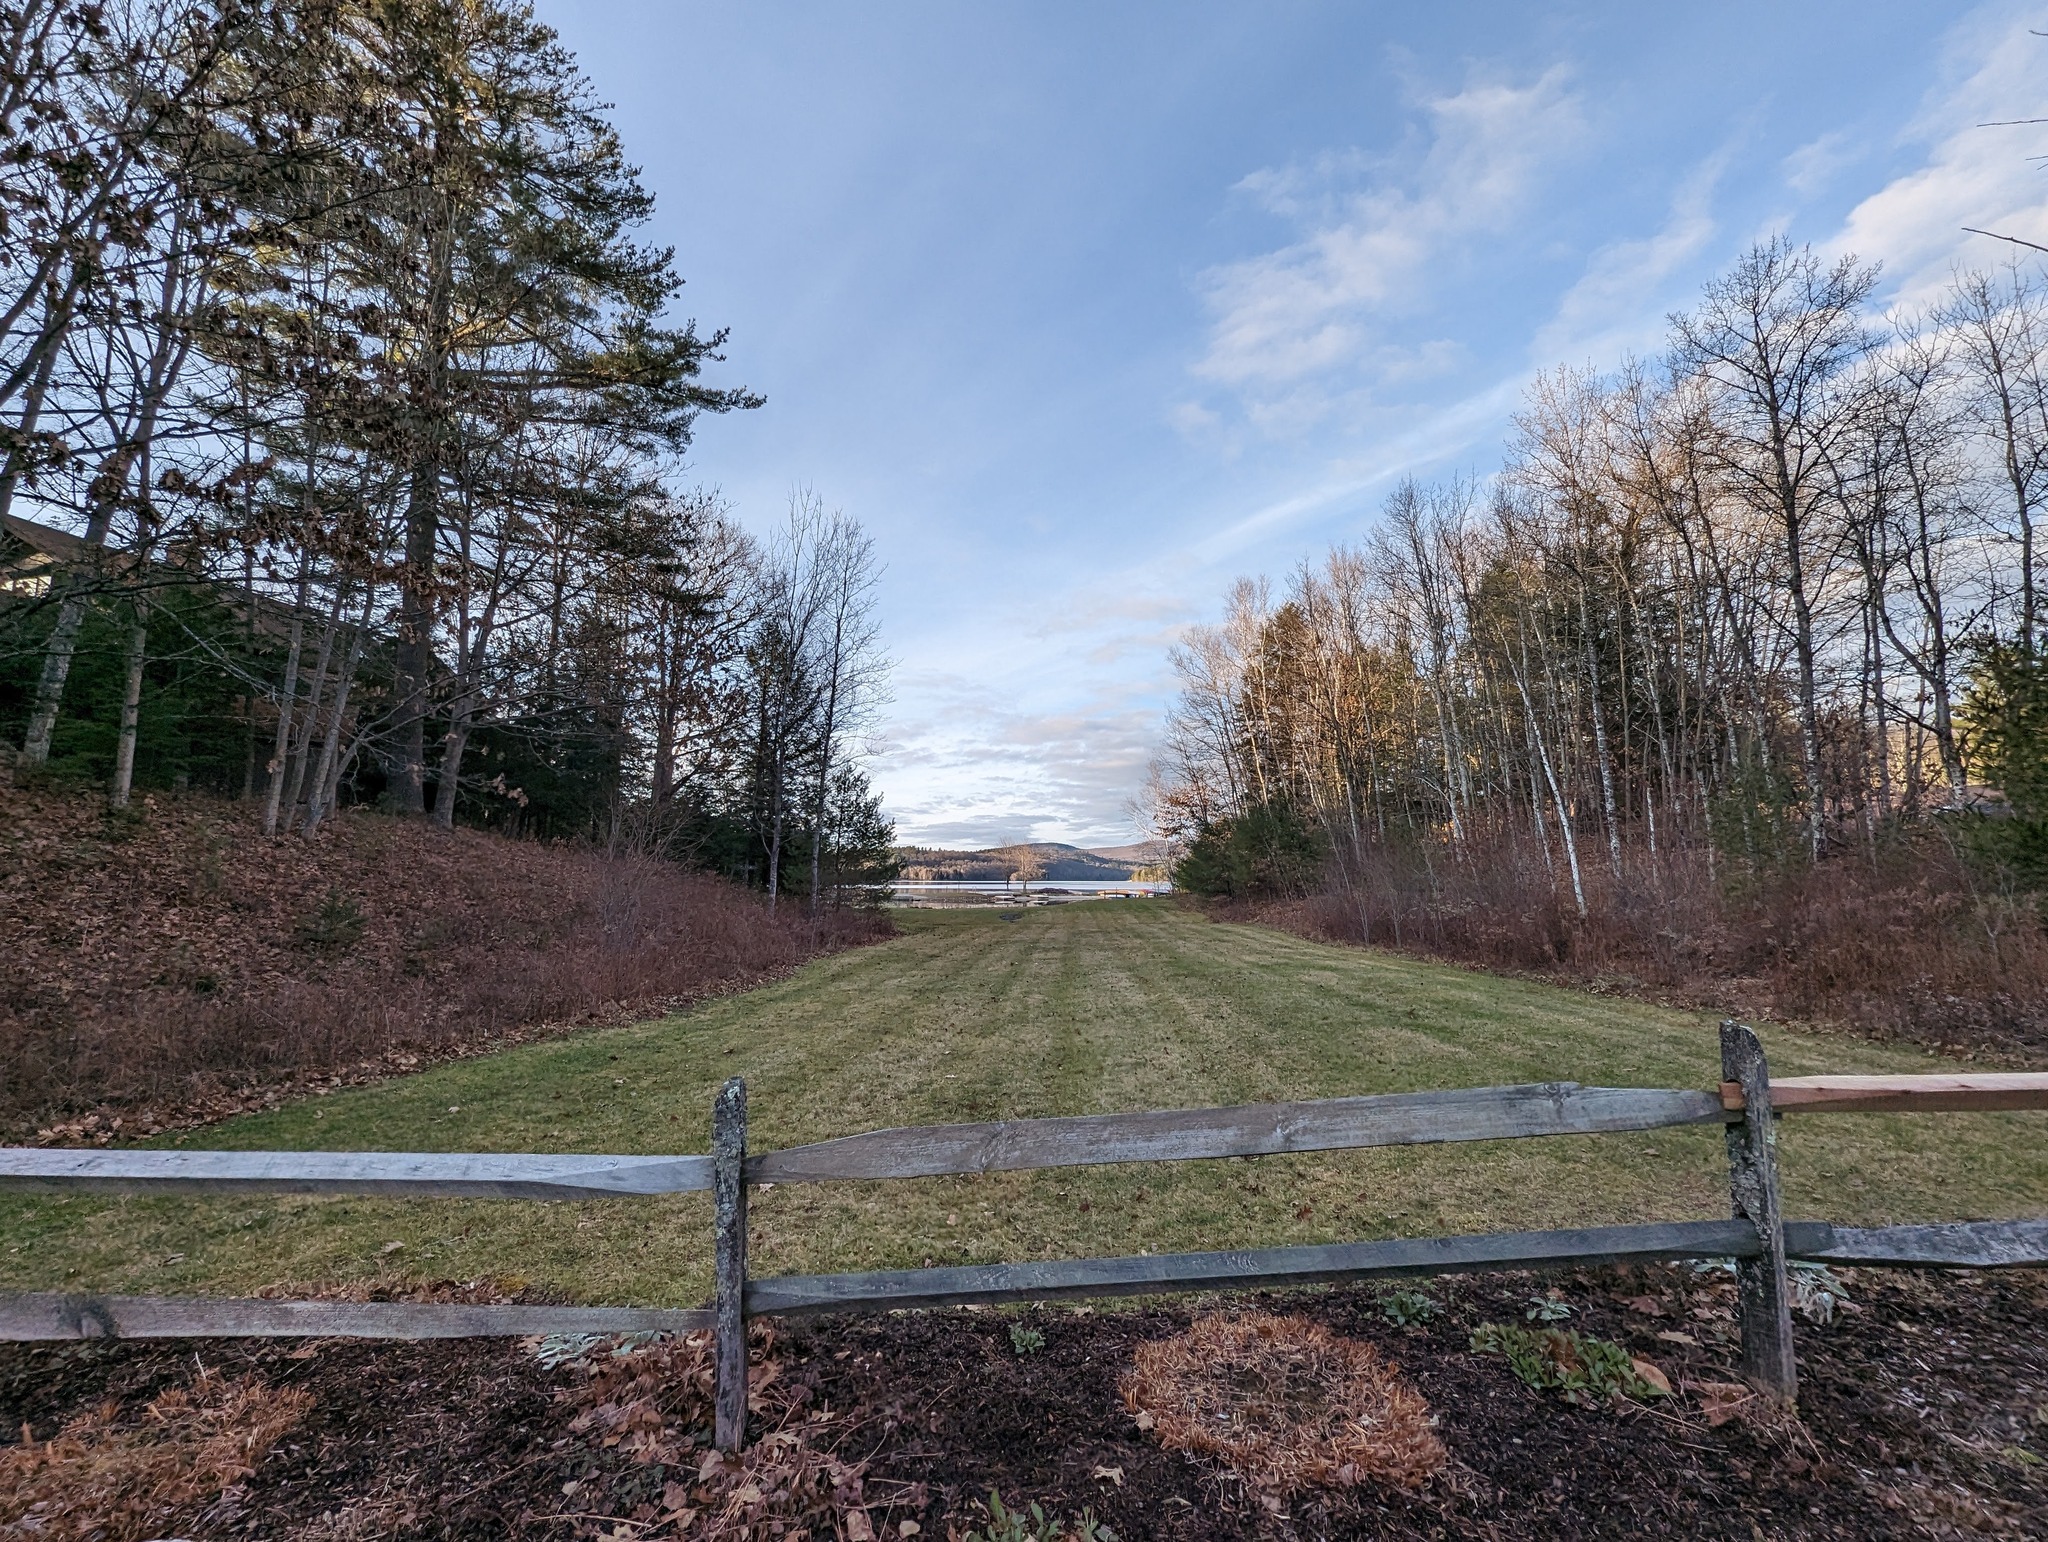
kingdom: Plantae
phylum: Tracheophyta
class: Pinopsida
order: Pinales
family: Pinaceae
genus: Pinus
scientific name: Pinus strobus
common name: Weymouth pine
